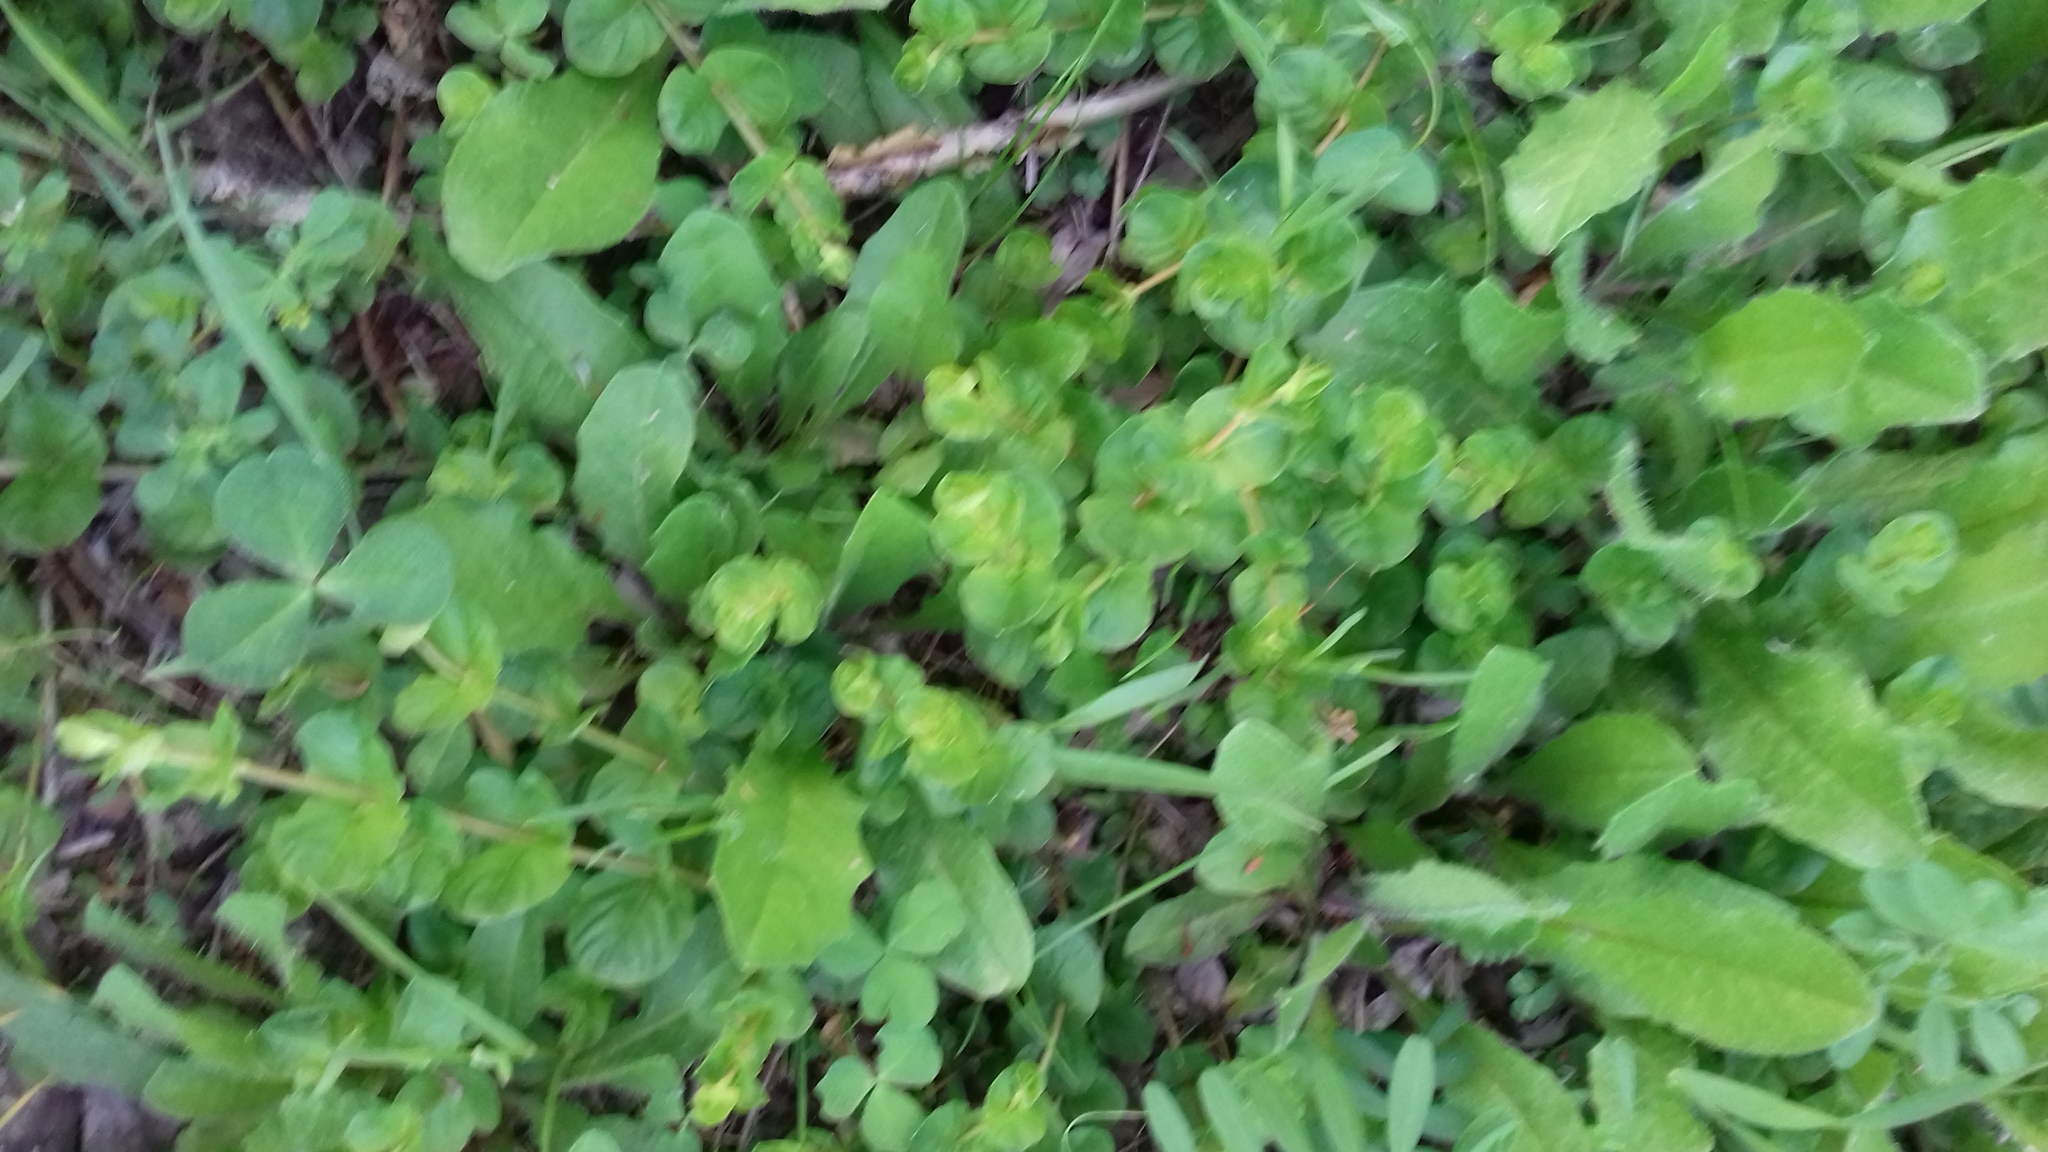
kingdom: Plantae
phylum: Tracheophyta
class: Magnoliopsida
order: Ericales
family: Primulaceae
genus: Lysimachia
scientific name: Lysimachia nummularia
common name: Moneywort
